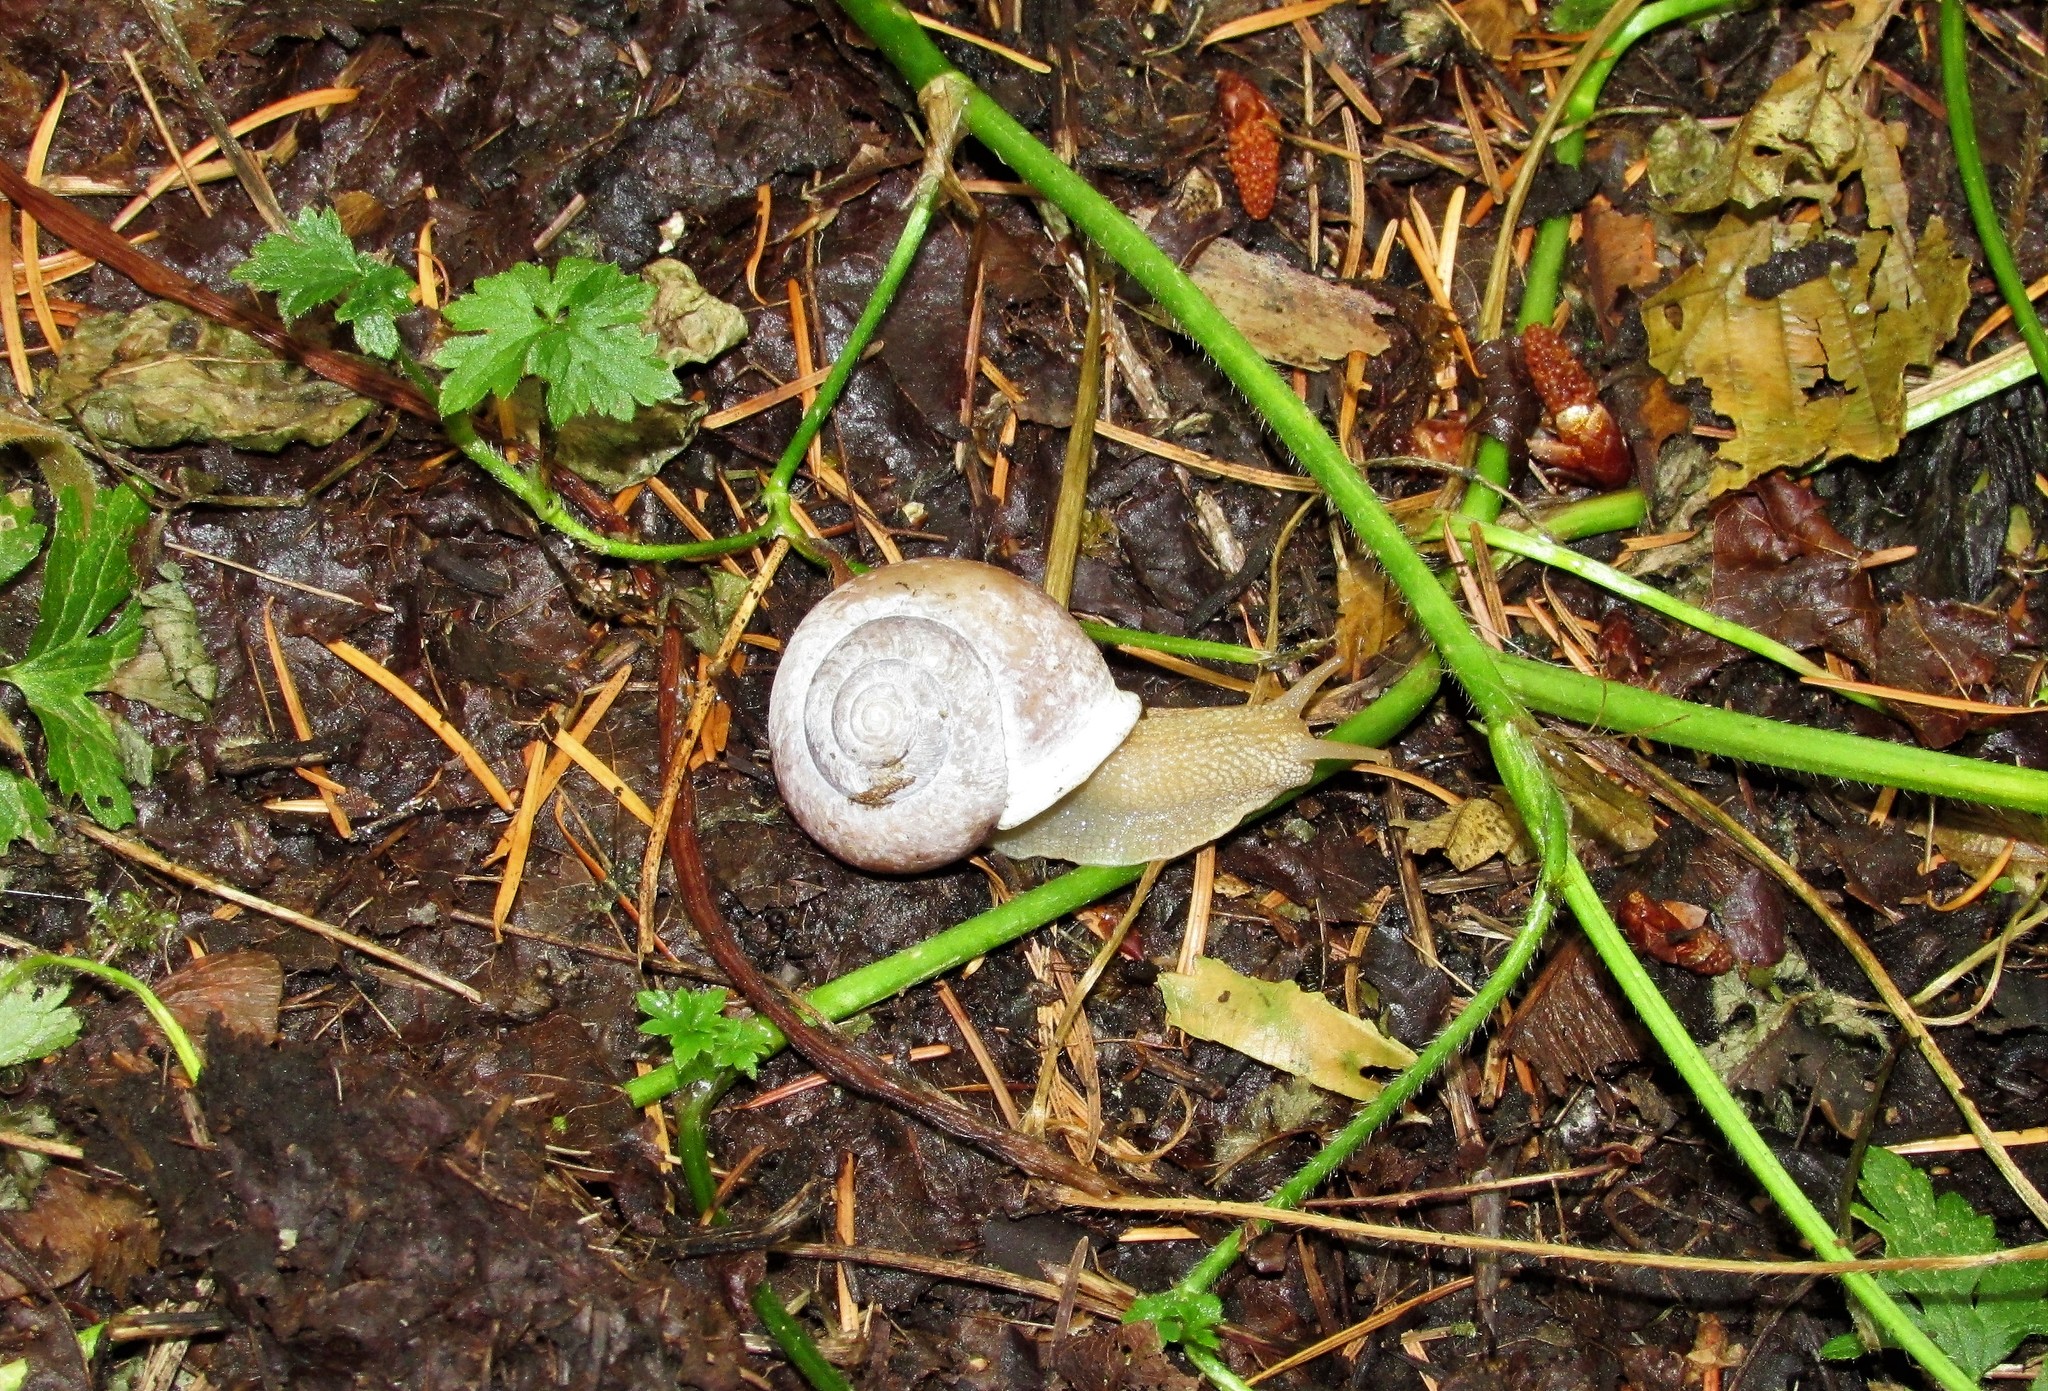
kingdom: Animalia
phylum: Mollusca
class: Gastropoda
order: Stylommatophora
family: Polygyridae
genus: Allogona
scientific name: Allogona townsendiana
